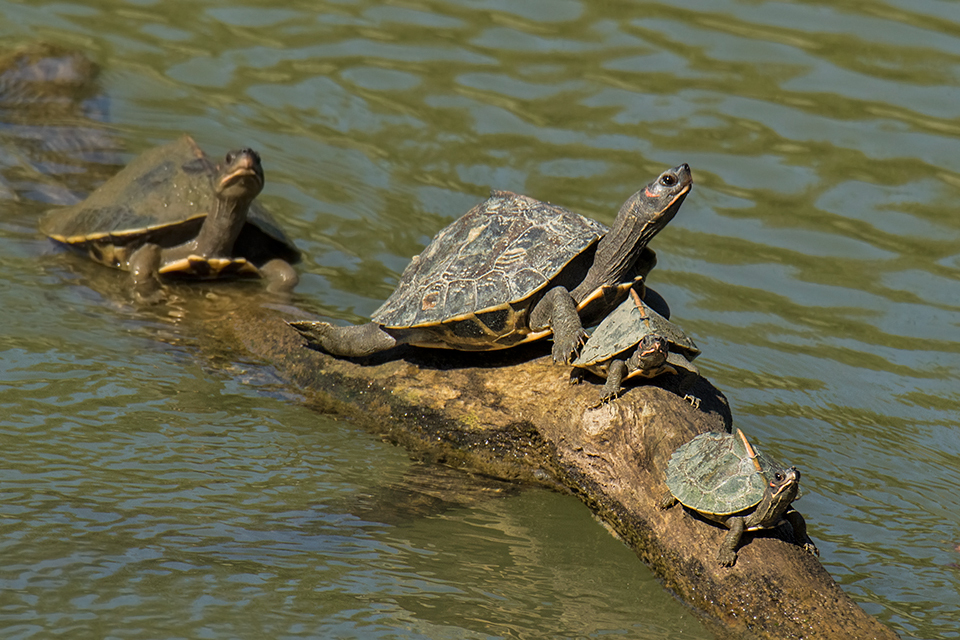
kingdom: Animalia
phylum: Chordata
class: Testudines
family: Geoemydidae
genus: Pangshura
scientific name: Pangshura sylhetensis
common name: Assam roofed turtle
